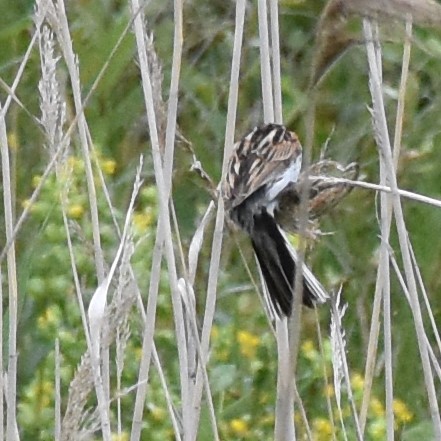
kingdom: Animalia
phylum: Chordata
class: Aves
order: Passeriformes
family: Emberizidae
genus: Emberiza
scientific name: Emberiza schoeniclus
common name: Reed bunting
